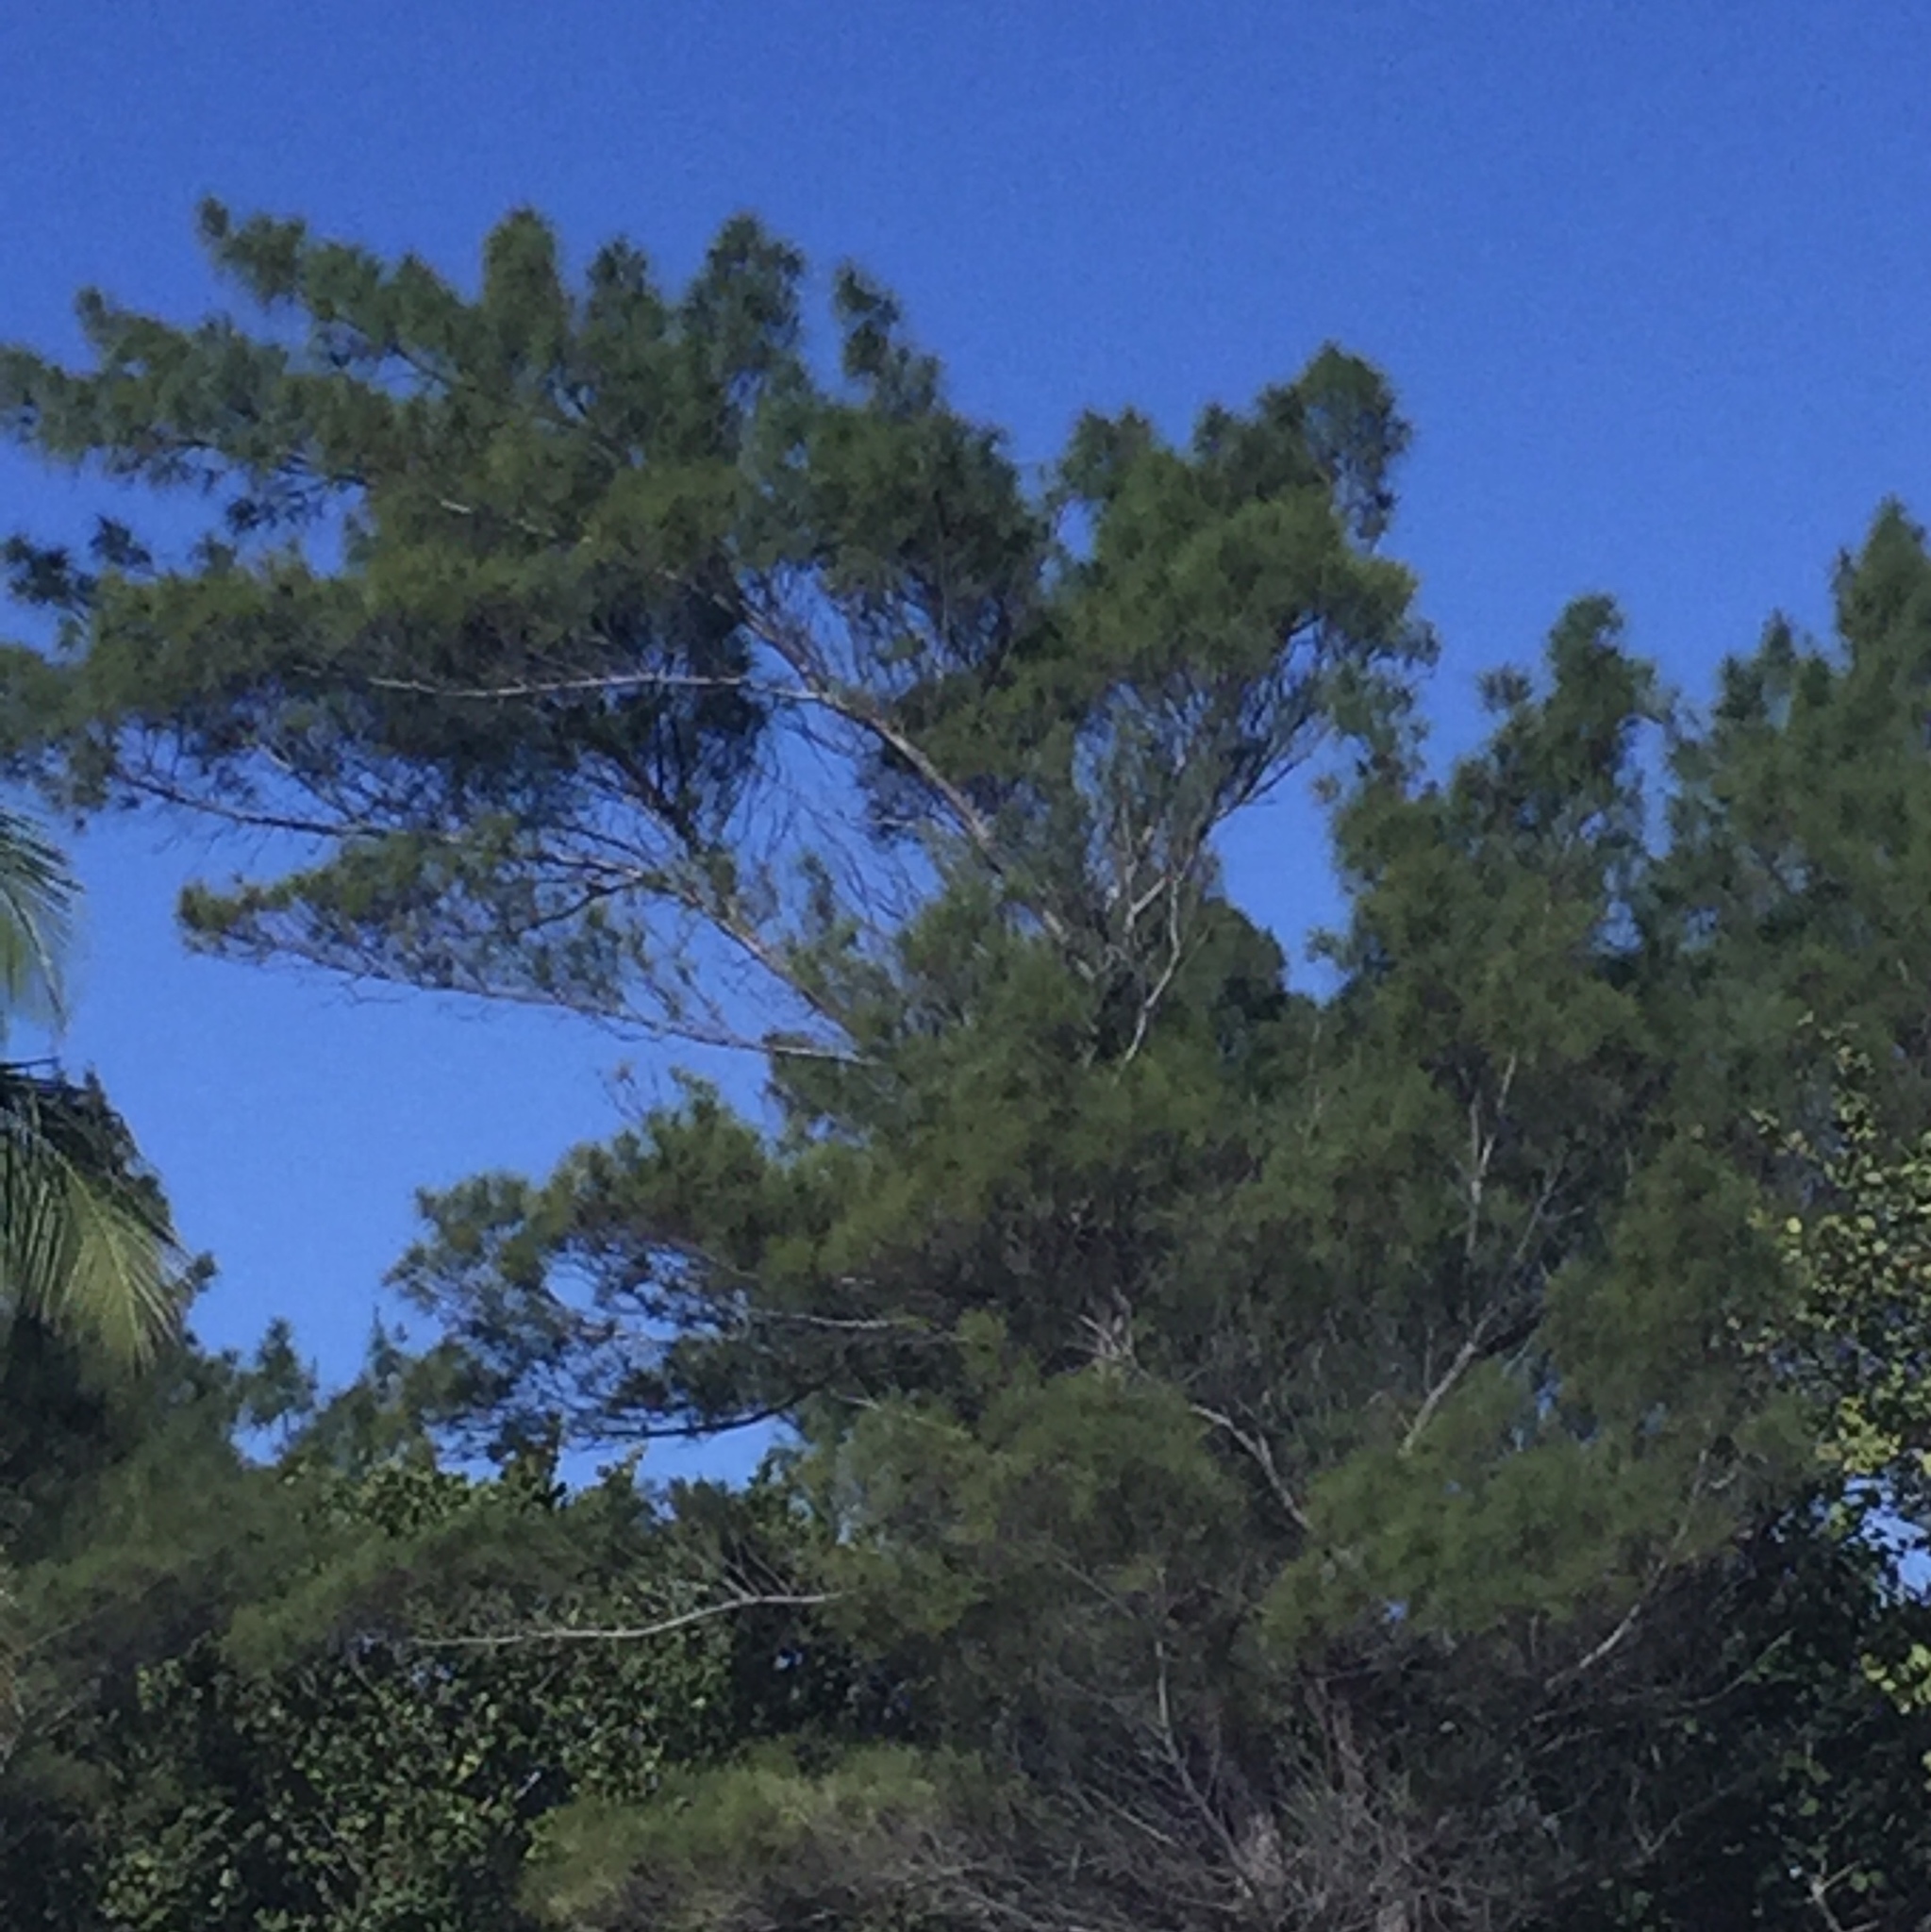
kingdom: Plantae
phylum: Tracheophyta
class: Magnoliopsida
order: Fagales
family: Casuarinaceae
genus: Casuarina
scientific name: Casuarina equisetifolia
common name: Beach sheoak
